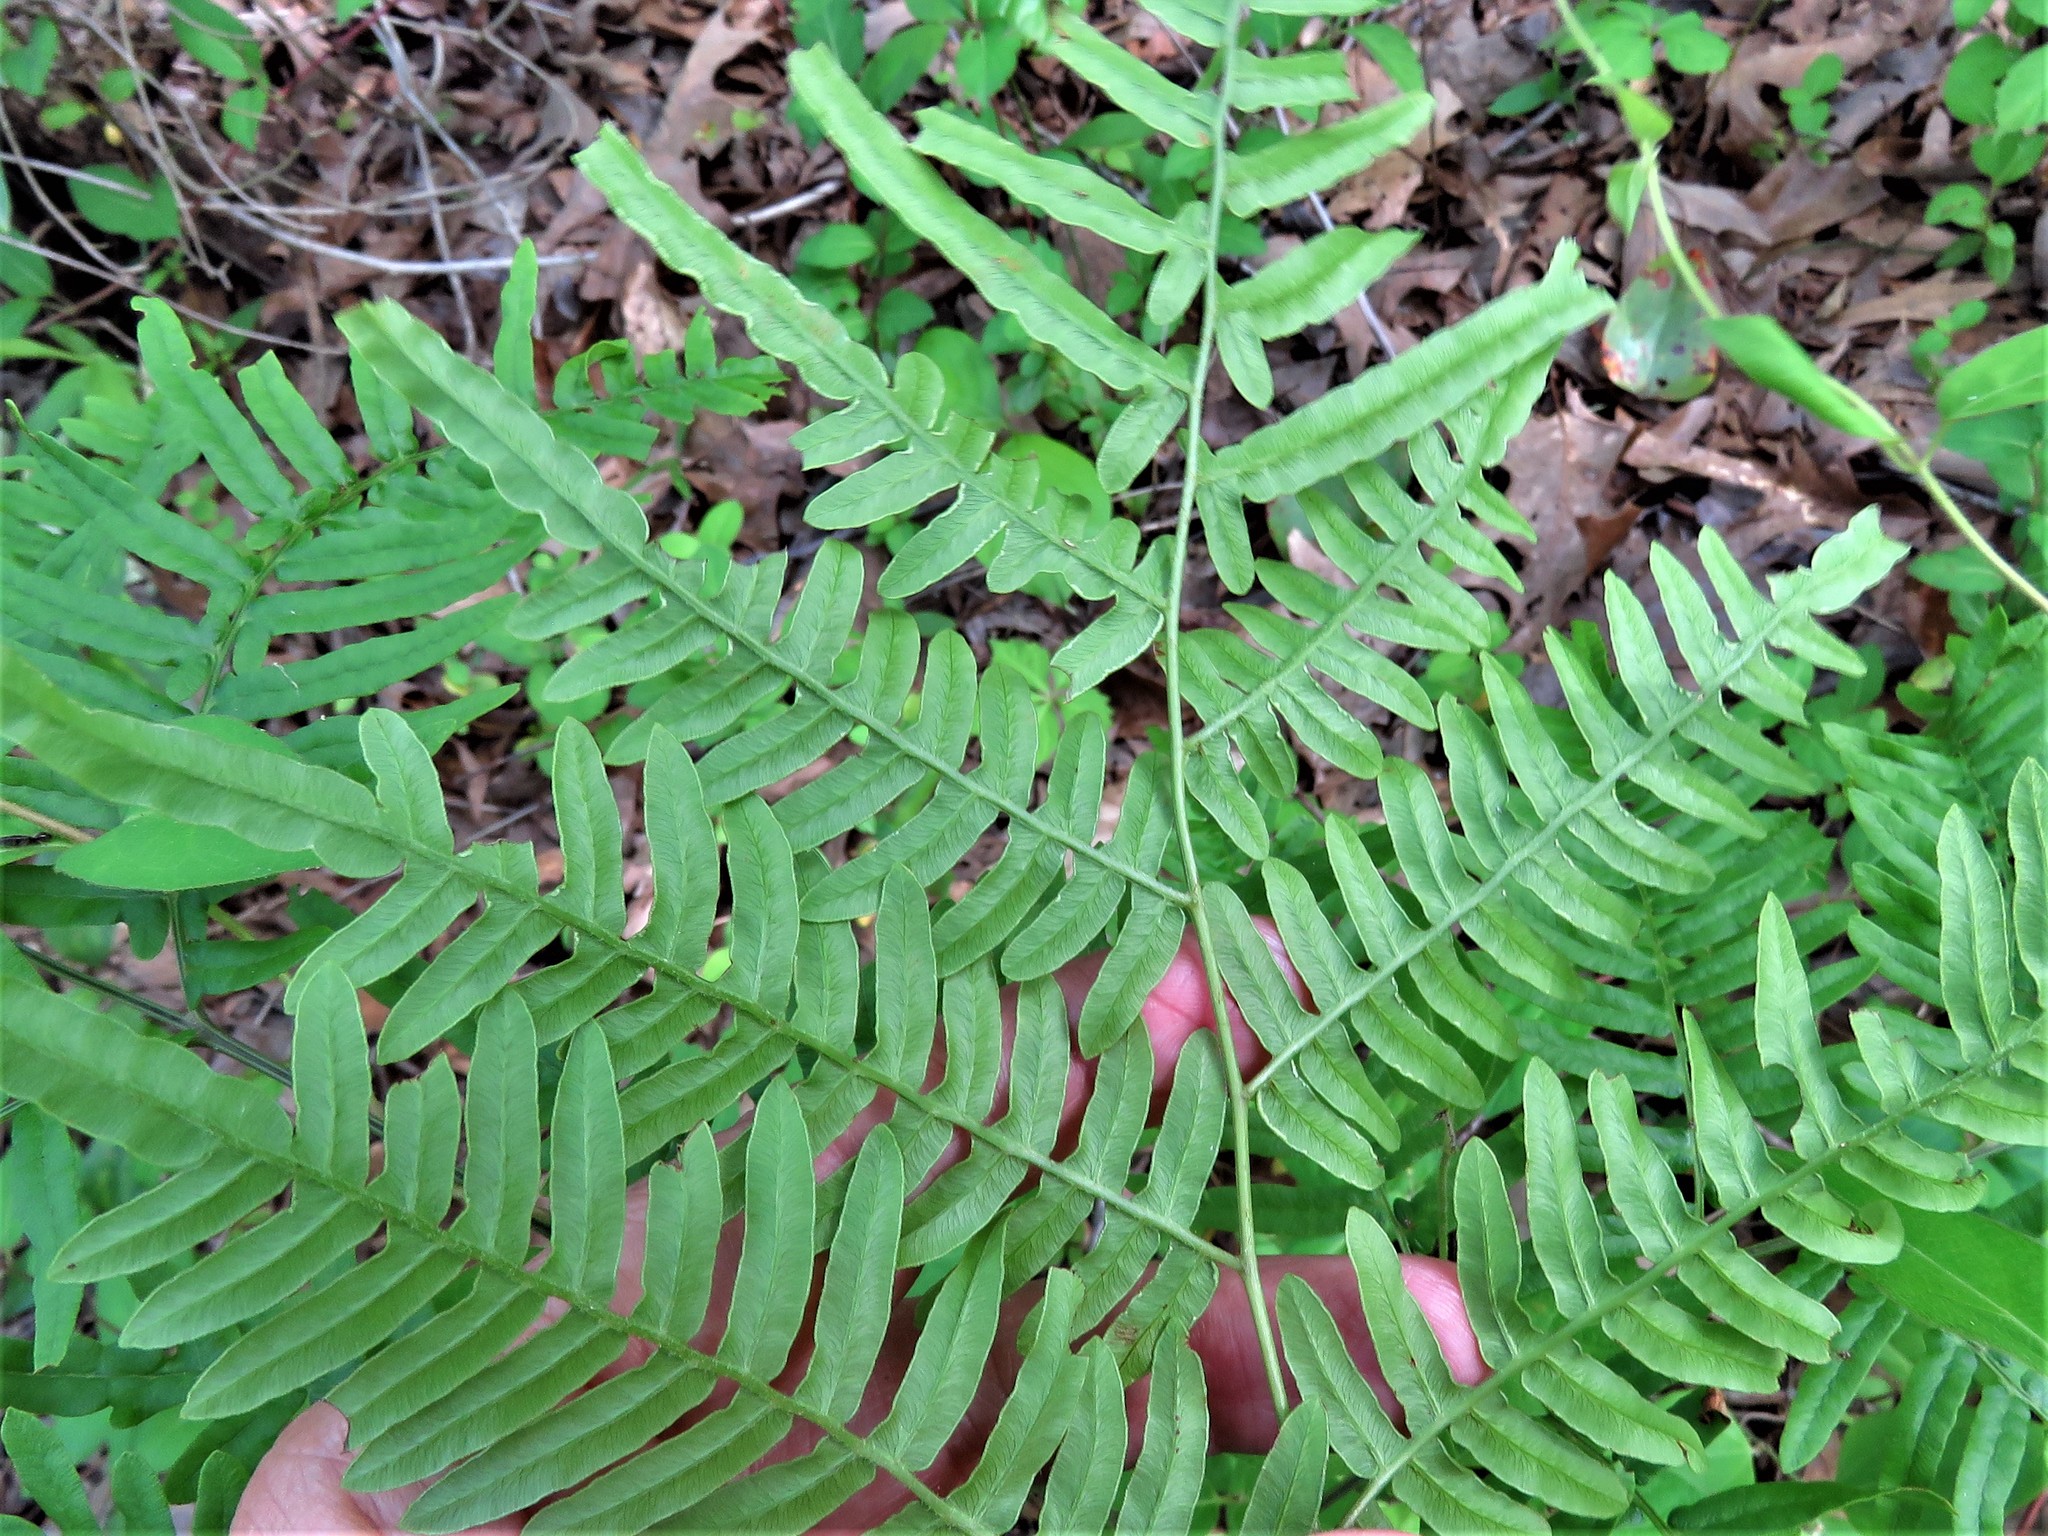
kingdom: Plantae
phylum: Tracheophyta
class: Polypodiopsida
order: Polypodiales
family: Dennstaedtiaceae
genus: Pteridium
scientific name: Pteridium
